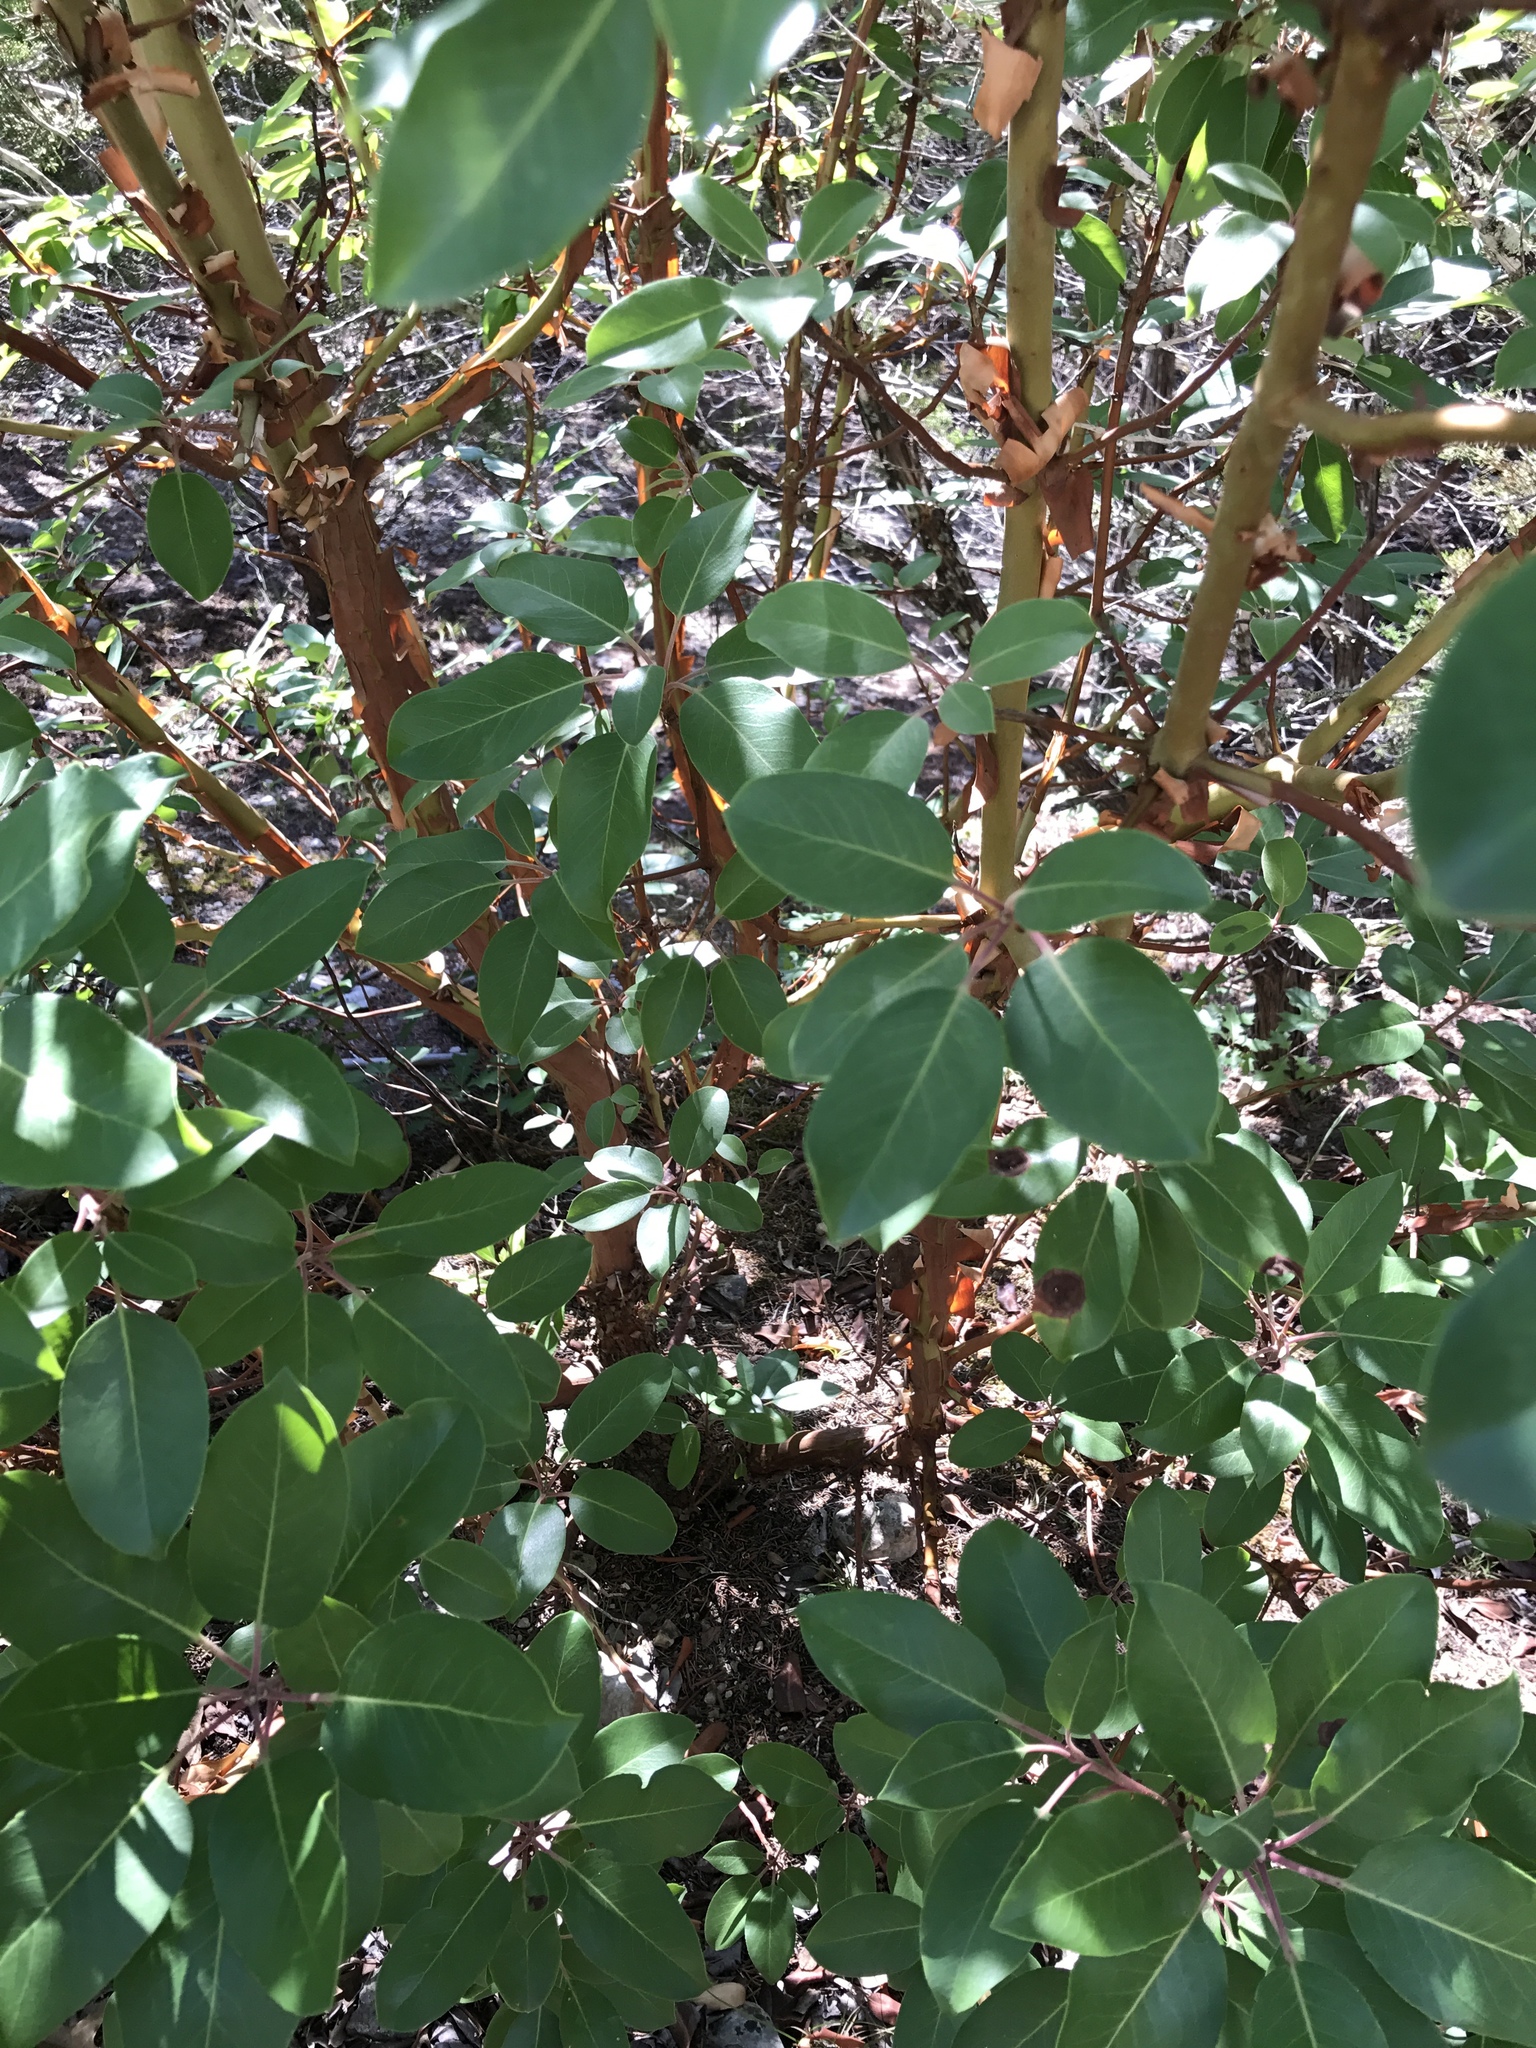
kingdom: Plantae
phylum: Tracheophyta
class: Magnoliopsida
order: Ericales
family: Ericaceae
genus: Arbutus
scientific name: Arbutus xalapensis
